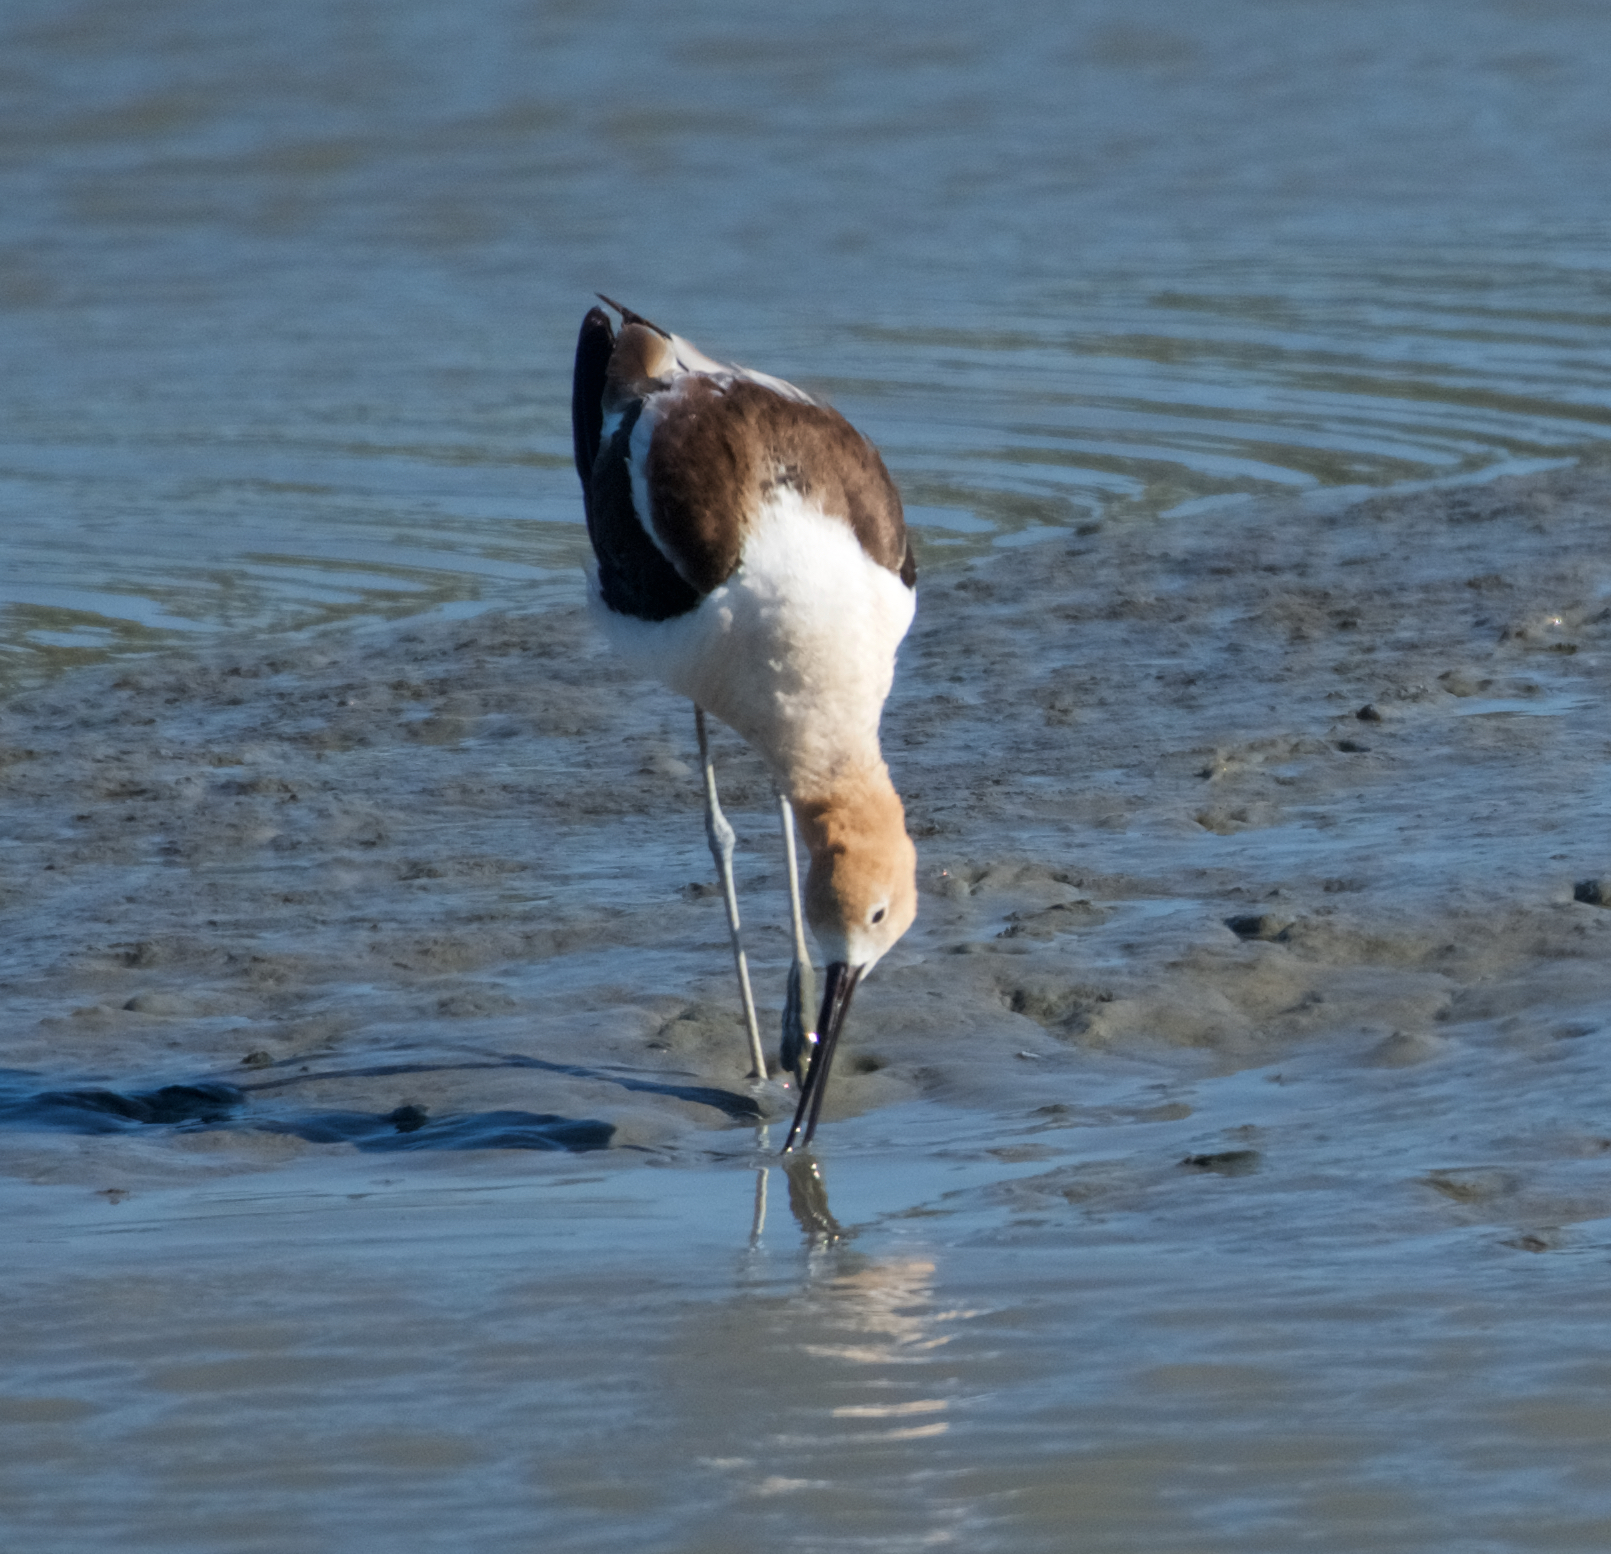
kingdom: Animalia
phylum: Chordata
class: Aves
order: Charadriiformes
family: Recurvirostridae
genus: Recurvirostra
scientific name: Recurvirostra americana
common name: American avocet
